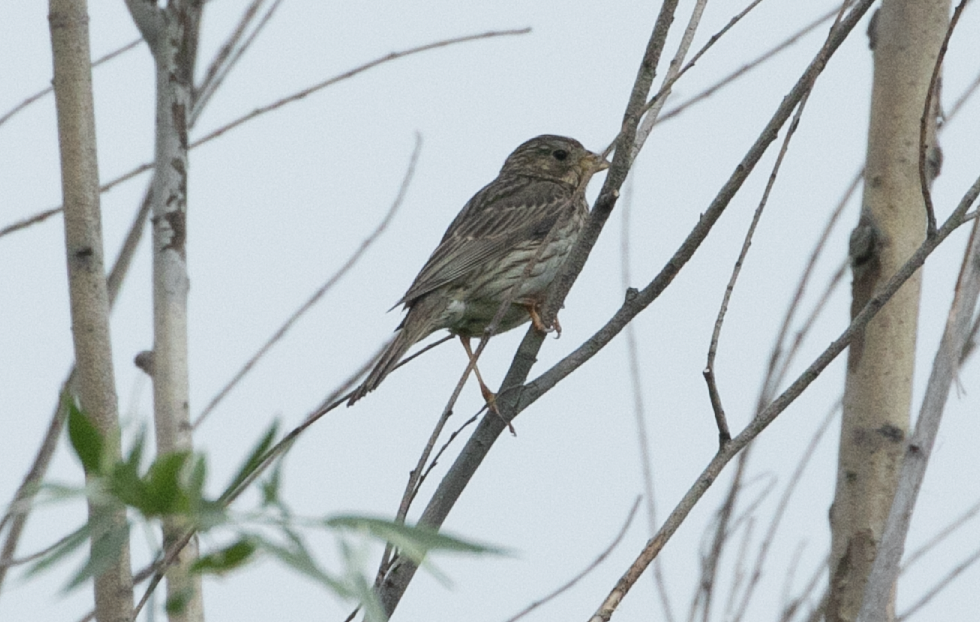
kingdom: Animalia
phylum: Chordata
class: Aves
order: Passeriformes
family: Emberizidae
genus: Emberiza
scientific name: Emberiza calandra
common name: Corn bunting
